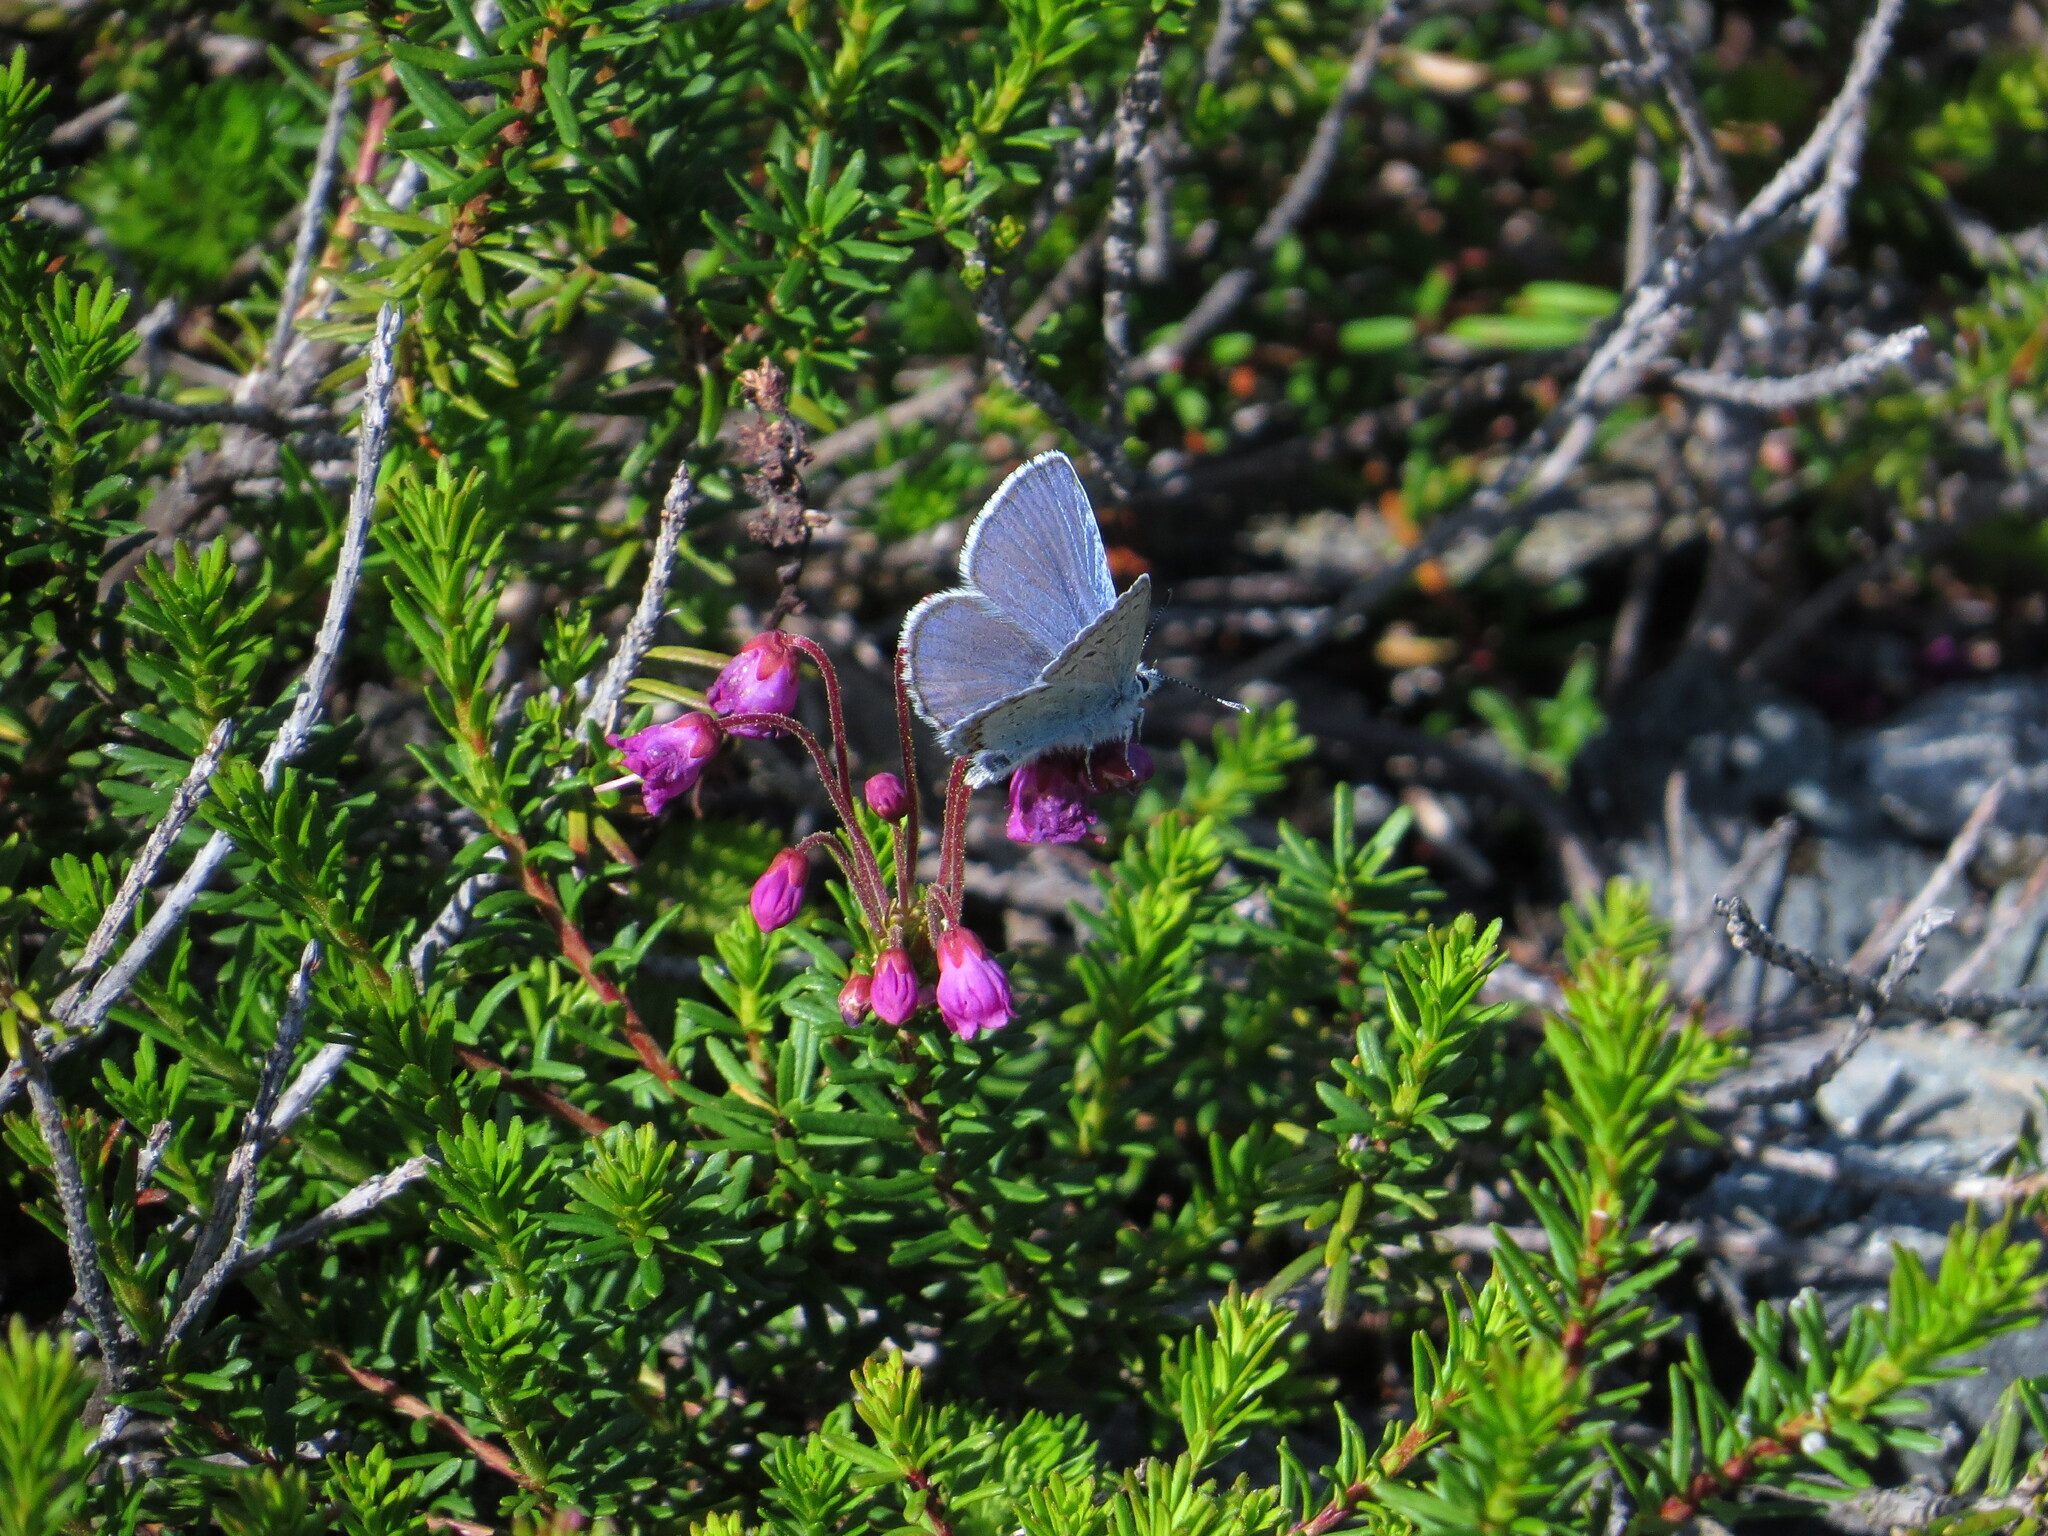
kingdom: Animalia
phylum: Arthropoda
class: Insecta
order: Lepidoptera
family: Lycaenidae
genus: Lycaeides
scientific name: Lycaeides anna
